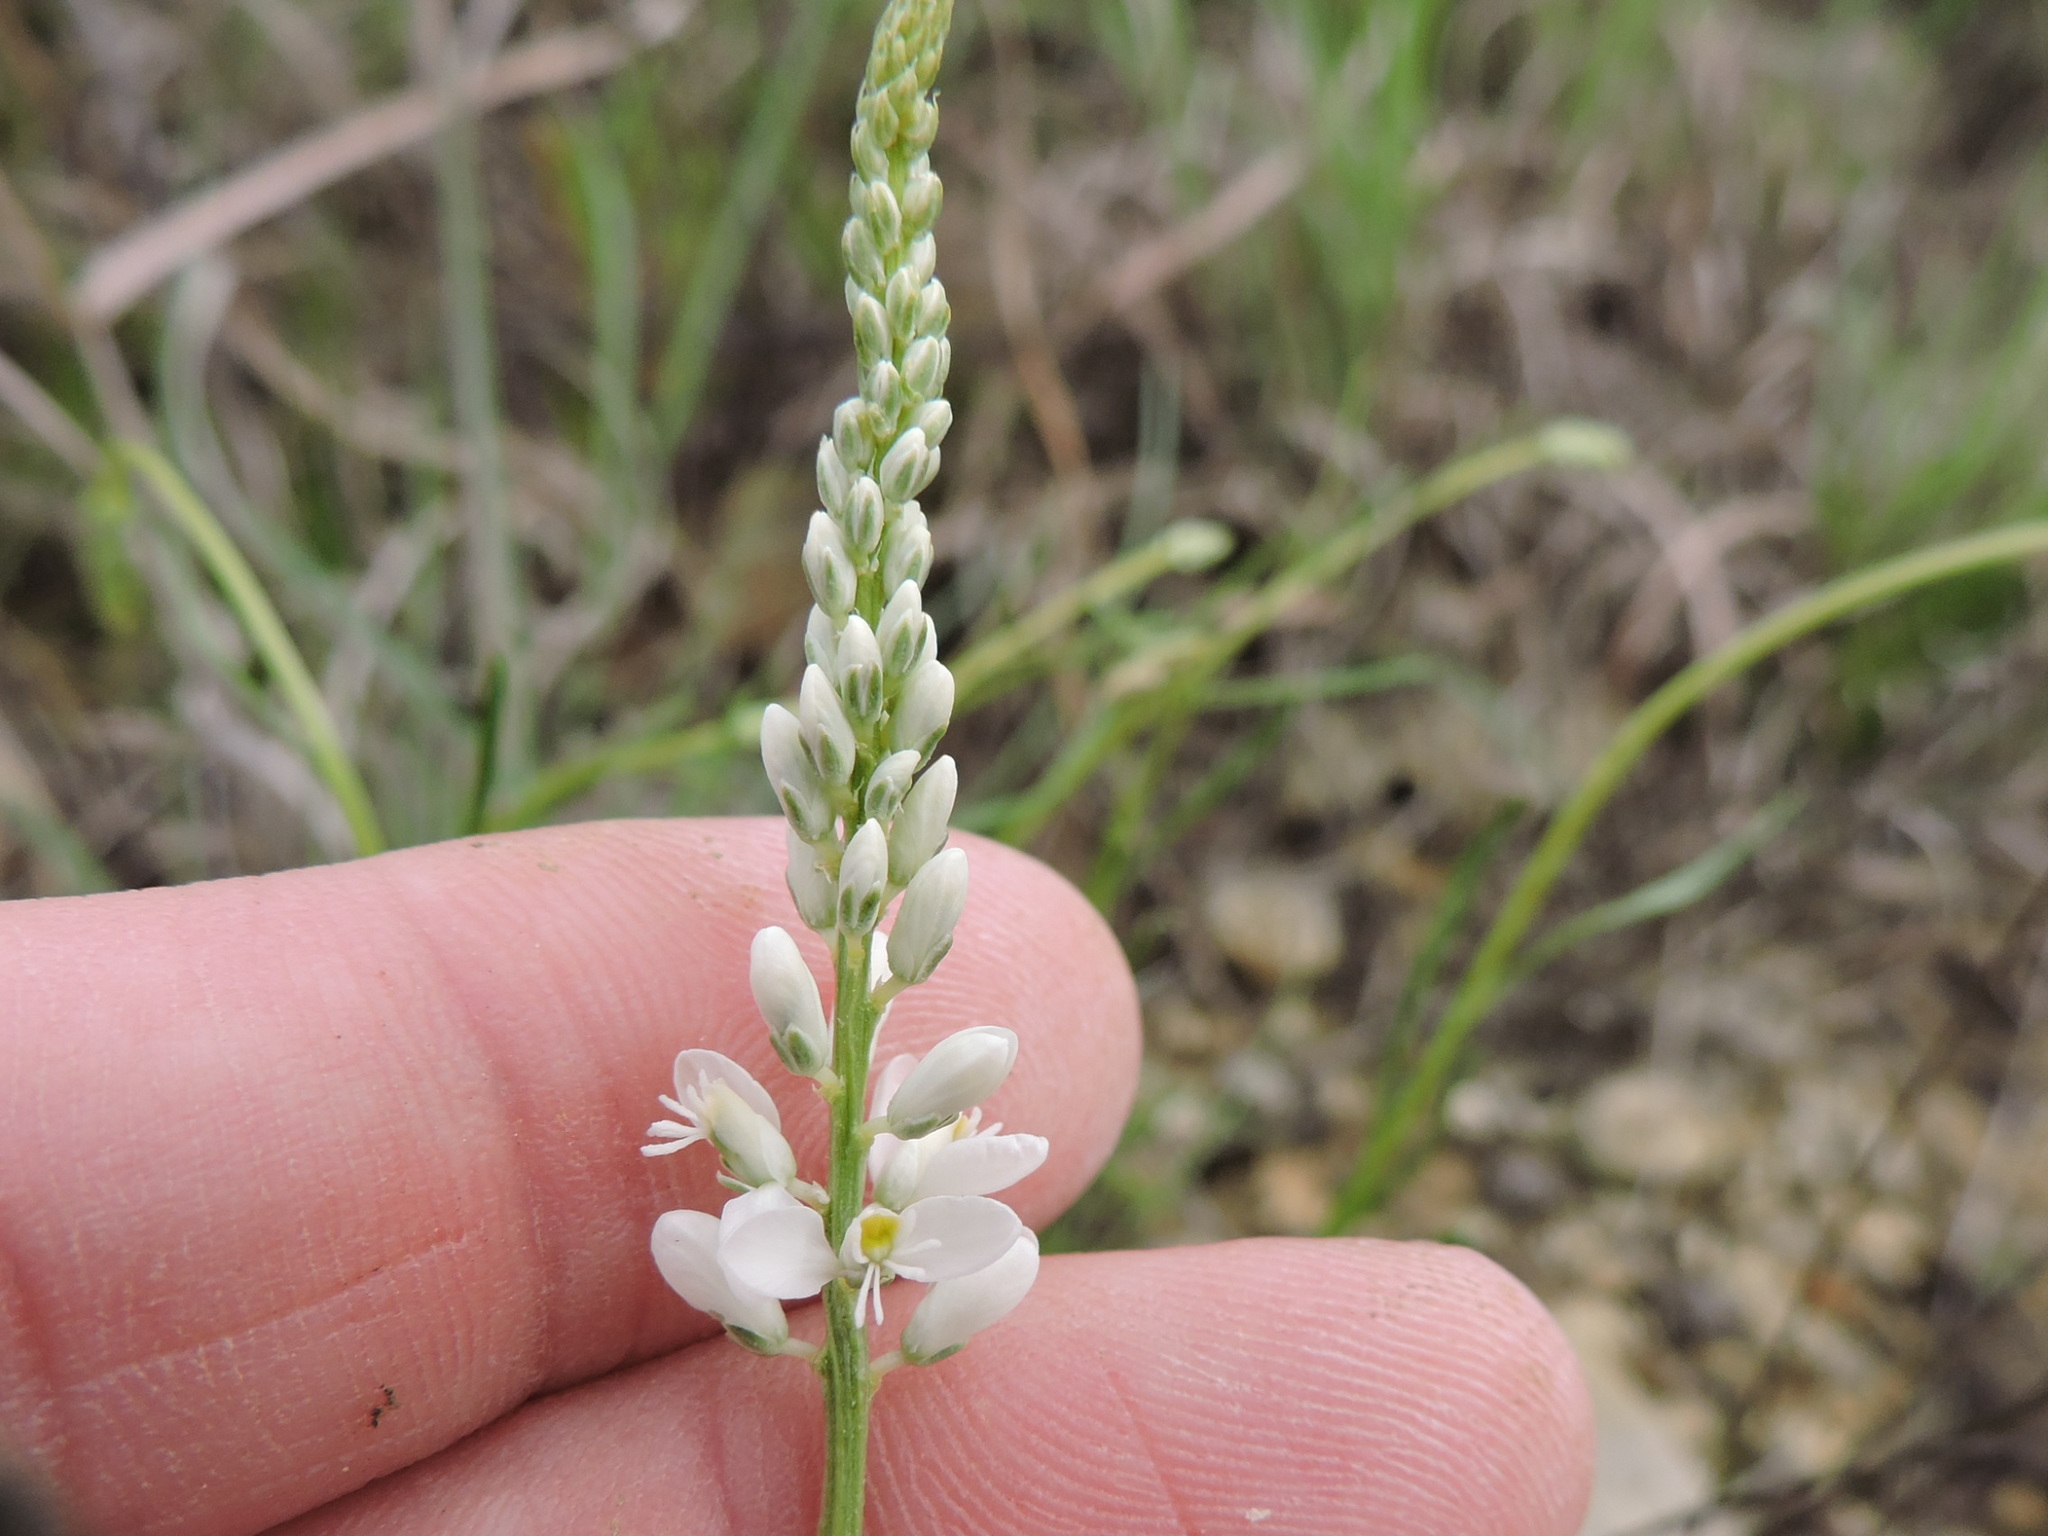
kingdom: Plantae
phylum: Tracheophyta
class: Magnoliopsida
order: Fabales
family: Polygalaceae
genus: Polygala
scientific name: Polygala alba
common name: White milkwort
